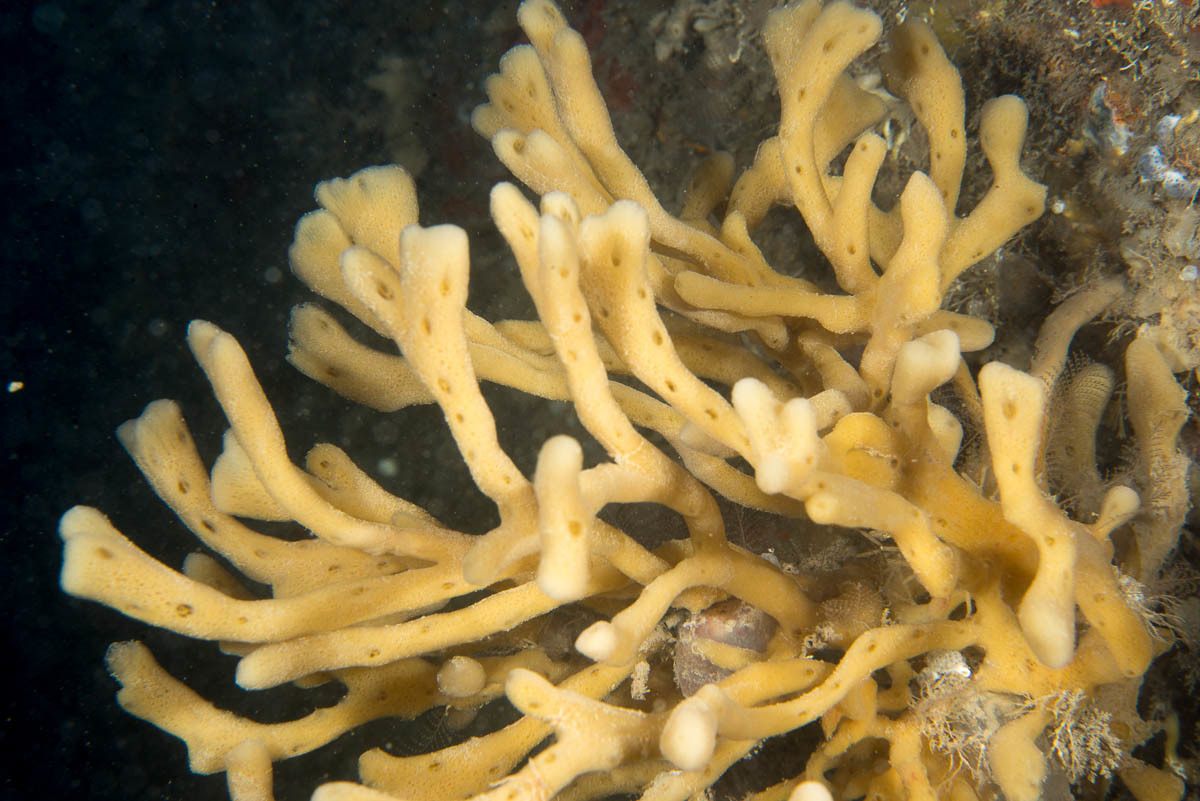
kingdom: Animalia
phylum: Porifera
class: Demospongiae
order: Haplosclerida
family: Chalinidae
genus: Haliclona
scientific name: Haliclona oculata
